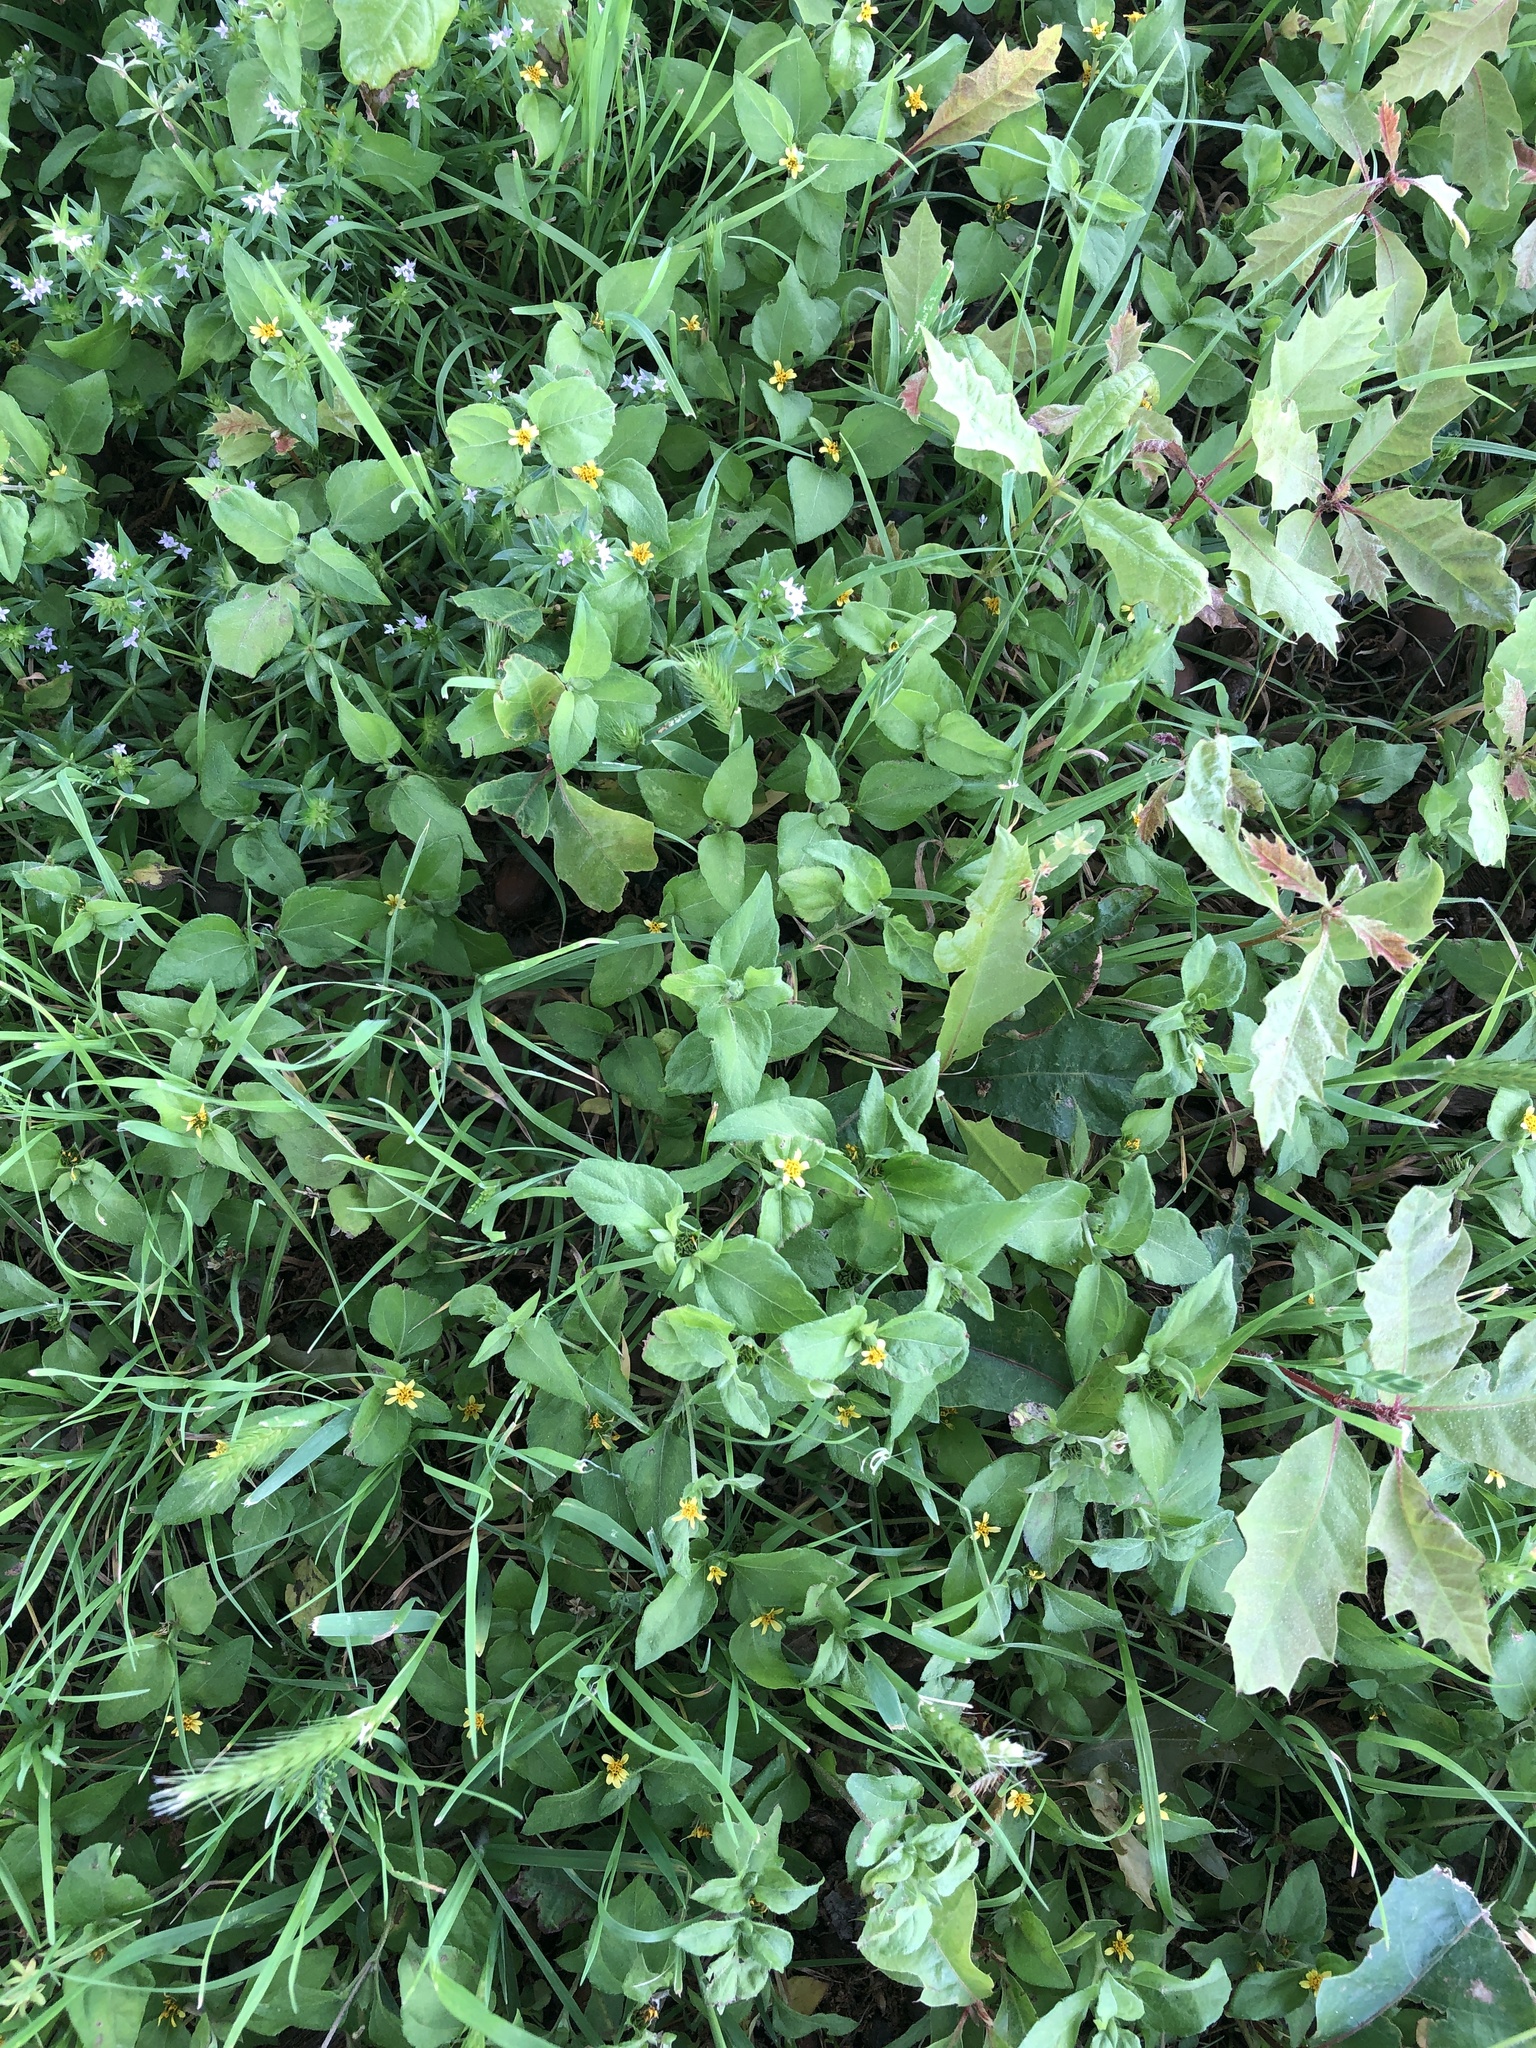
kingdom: Plantae
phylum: Tracheophyta
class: Magnoliopsida
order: Asterales
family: Asteraceae
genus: Calyptocarpus
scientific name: Calyptocarpus vialis
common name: Straggler daisy
